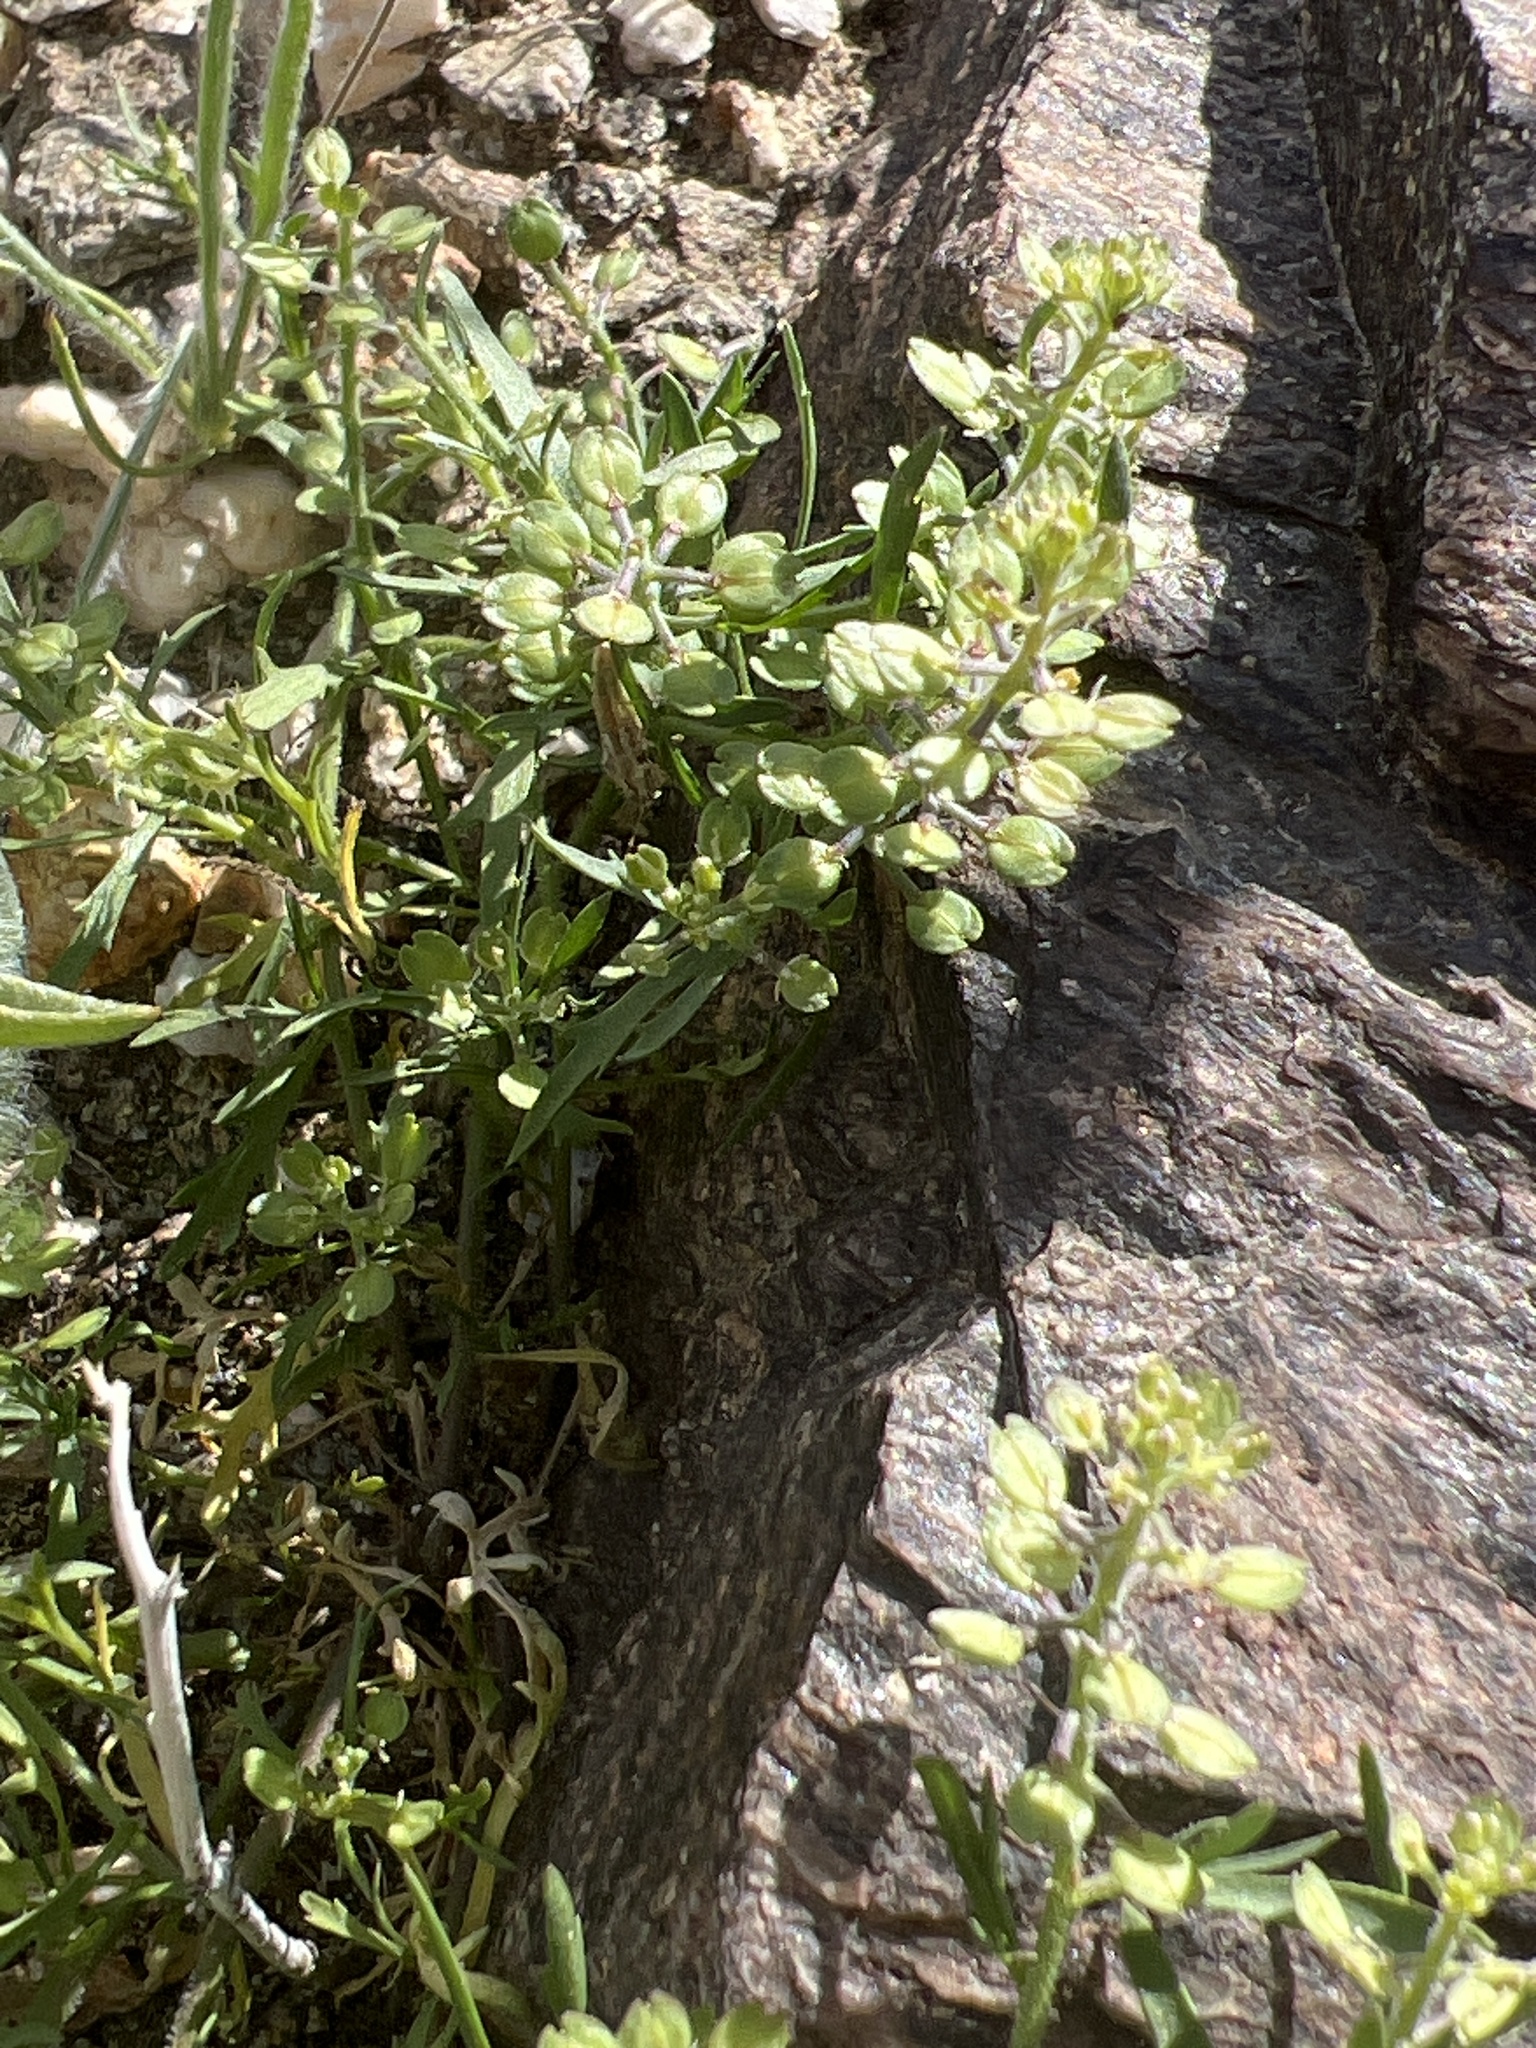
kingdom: Plantae
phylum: Tracheophyta
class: Magnoliopsida
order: Brassicales
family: Brassicaceae
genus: Lepidium
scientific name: Lepidium lasiocarpum
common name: Hairy-pod pepperwort
